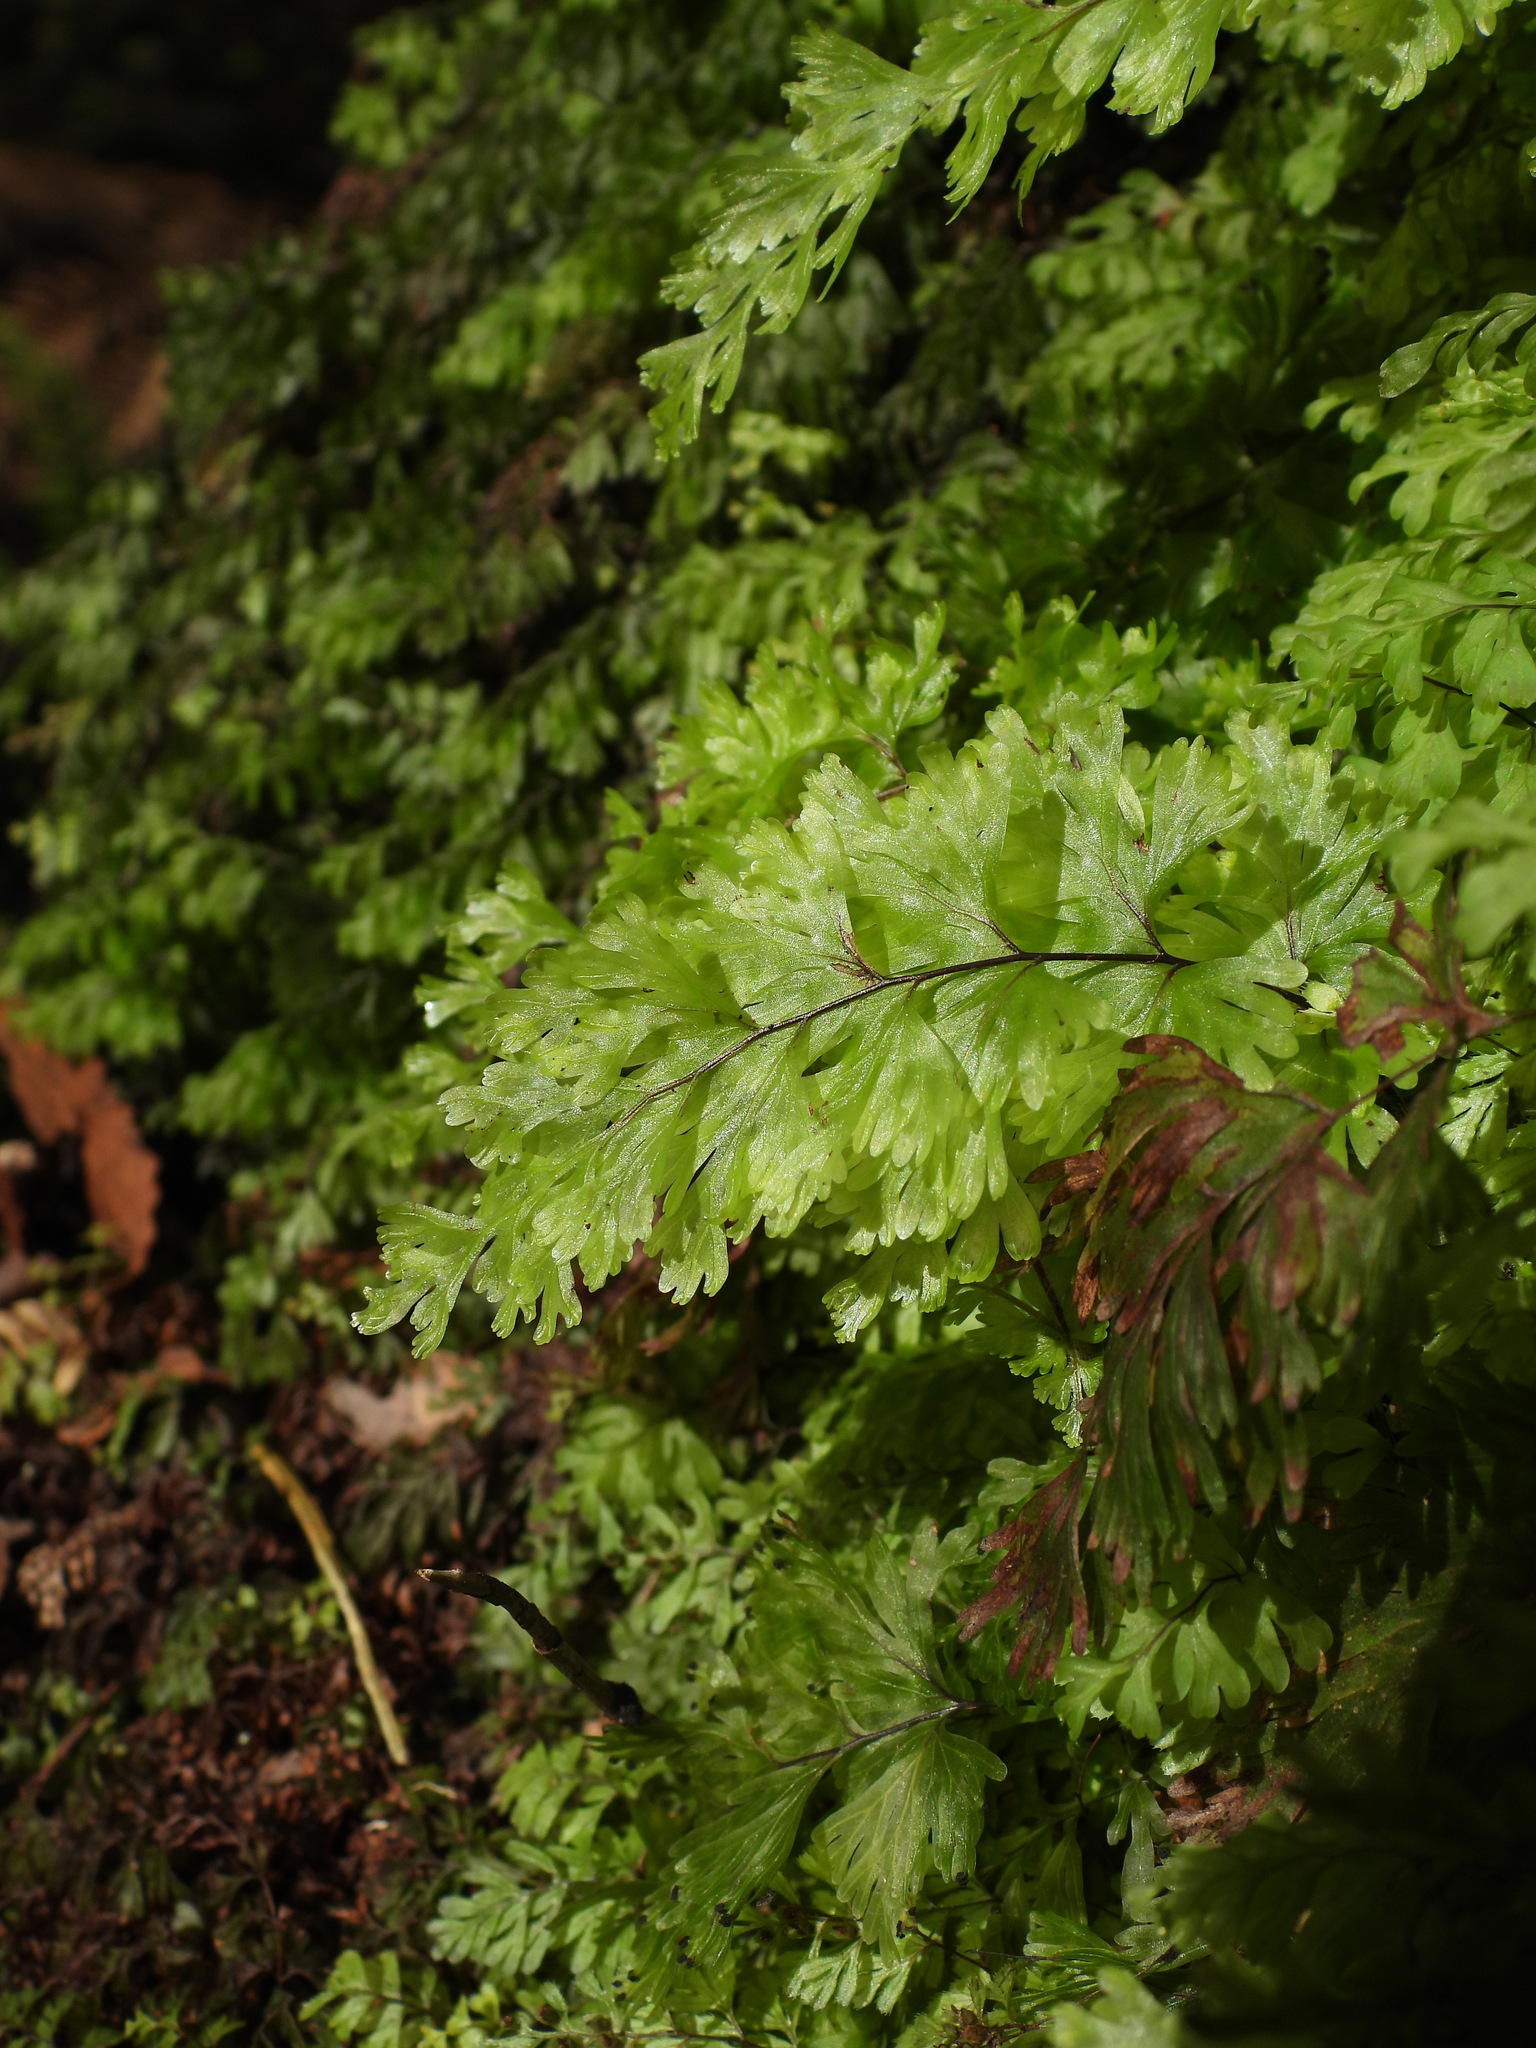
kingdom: Plantae
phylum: Tracheophyta
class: Polypodiopsida
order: Hymenophyllales
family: Hymenophyllaceae
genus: Hymenophyllum
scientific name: Hymenophyllum flabellatum
